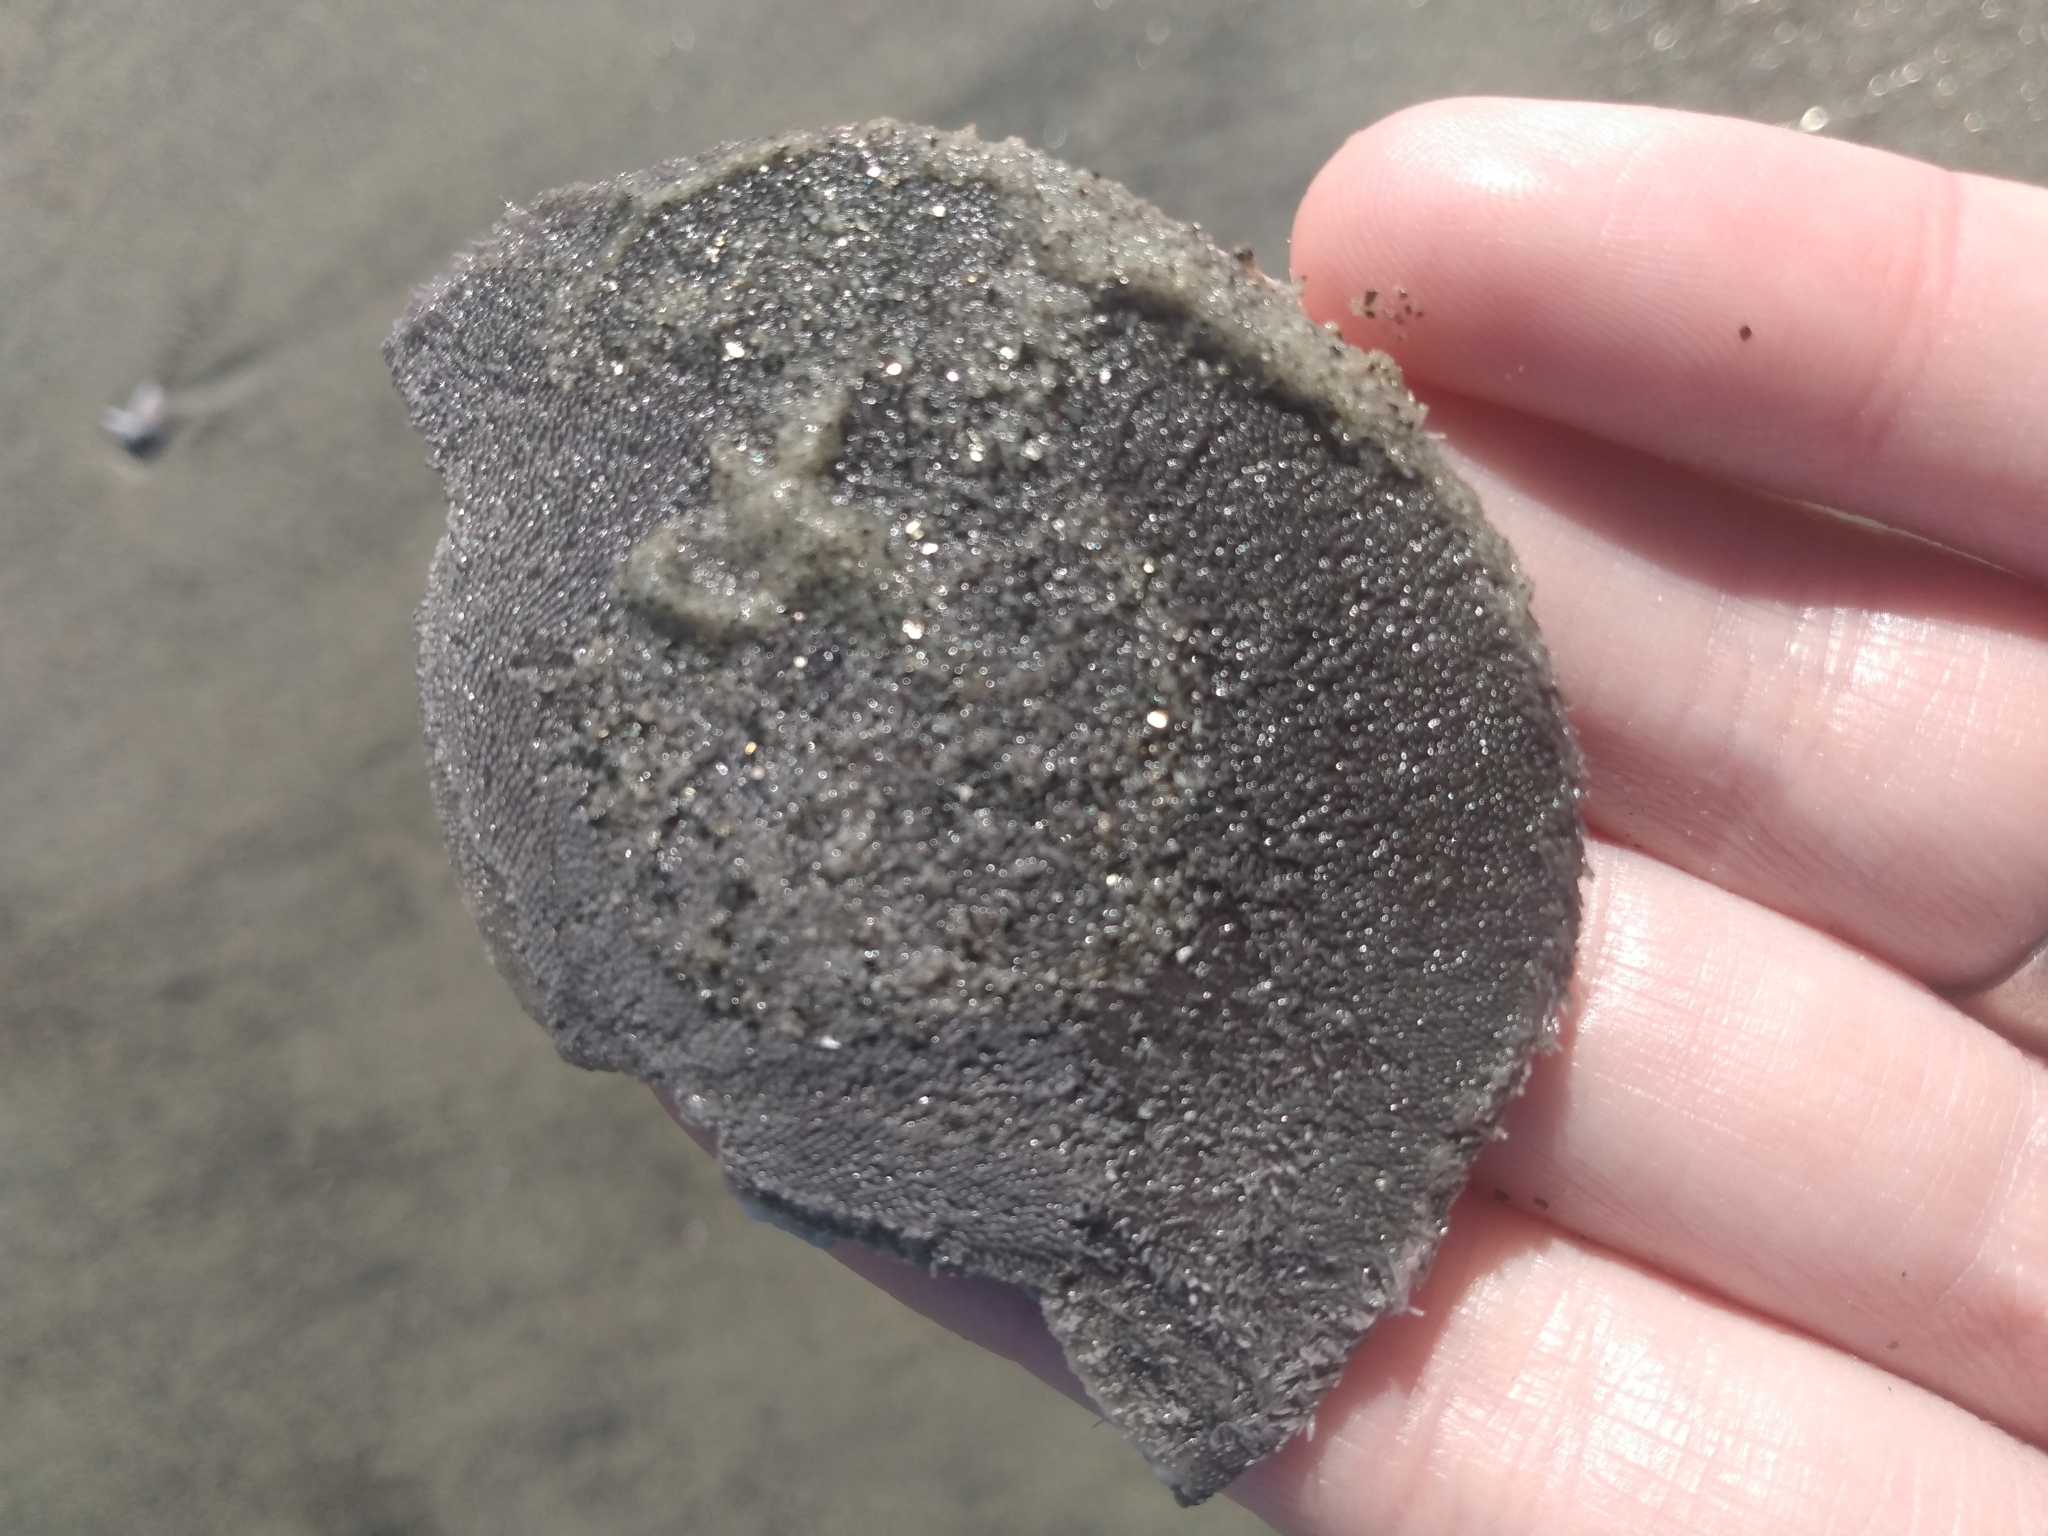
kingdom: Animalia
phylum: Echinodermata
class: Echinoidea
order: Echinolampadacea
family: Dendrasteridae
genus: Dendraster
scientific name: Dendraster excentricus
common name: Eccentric sand dollar sea urchin
